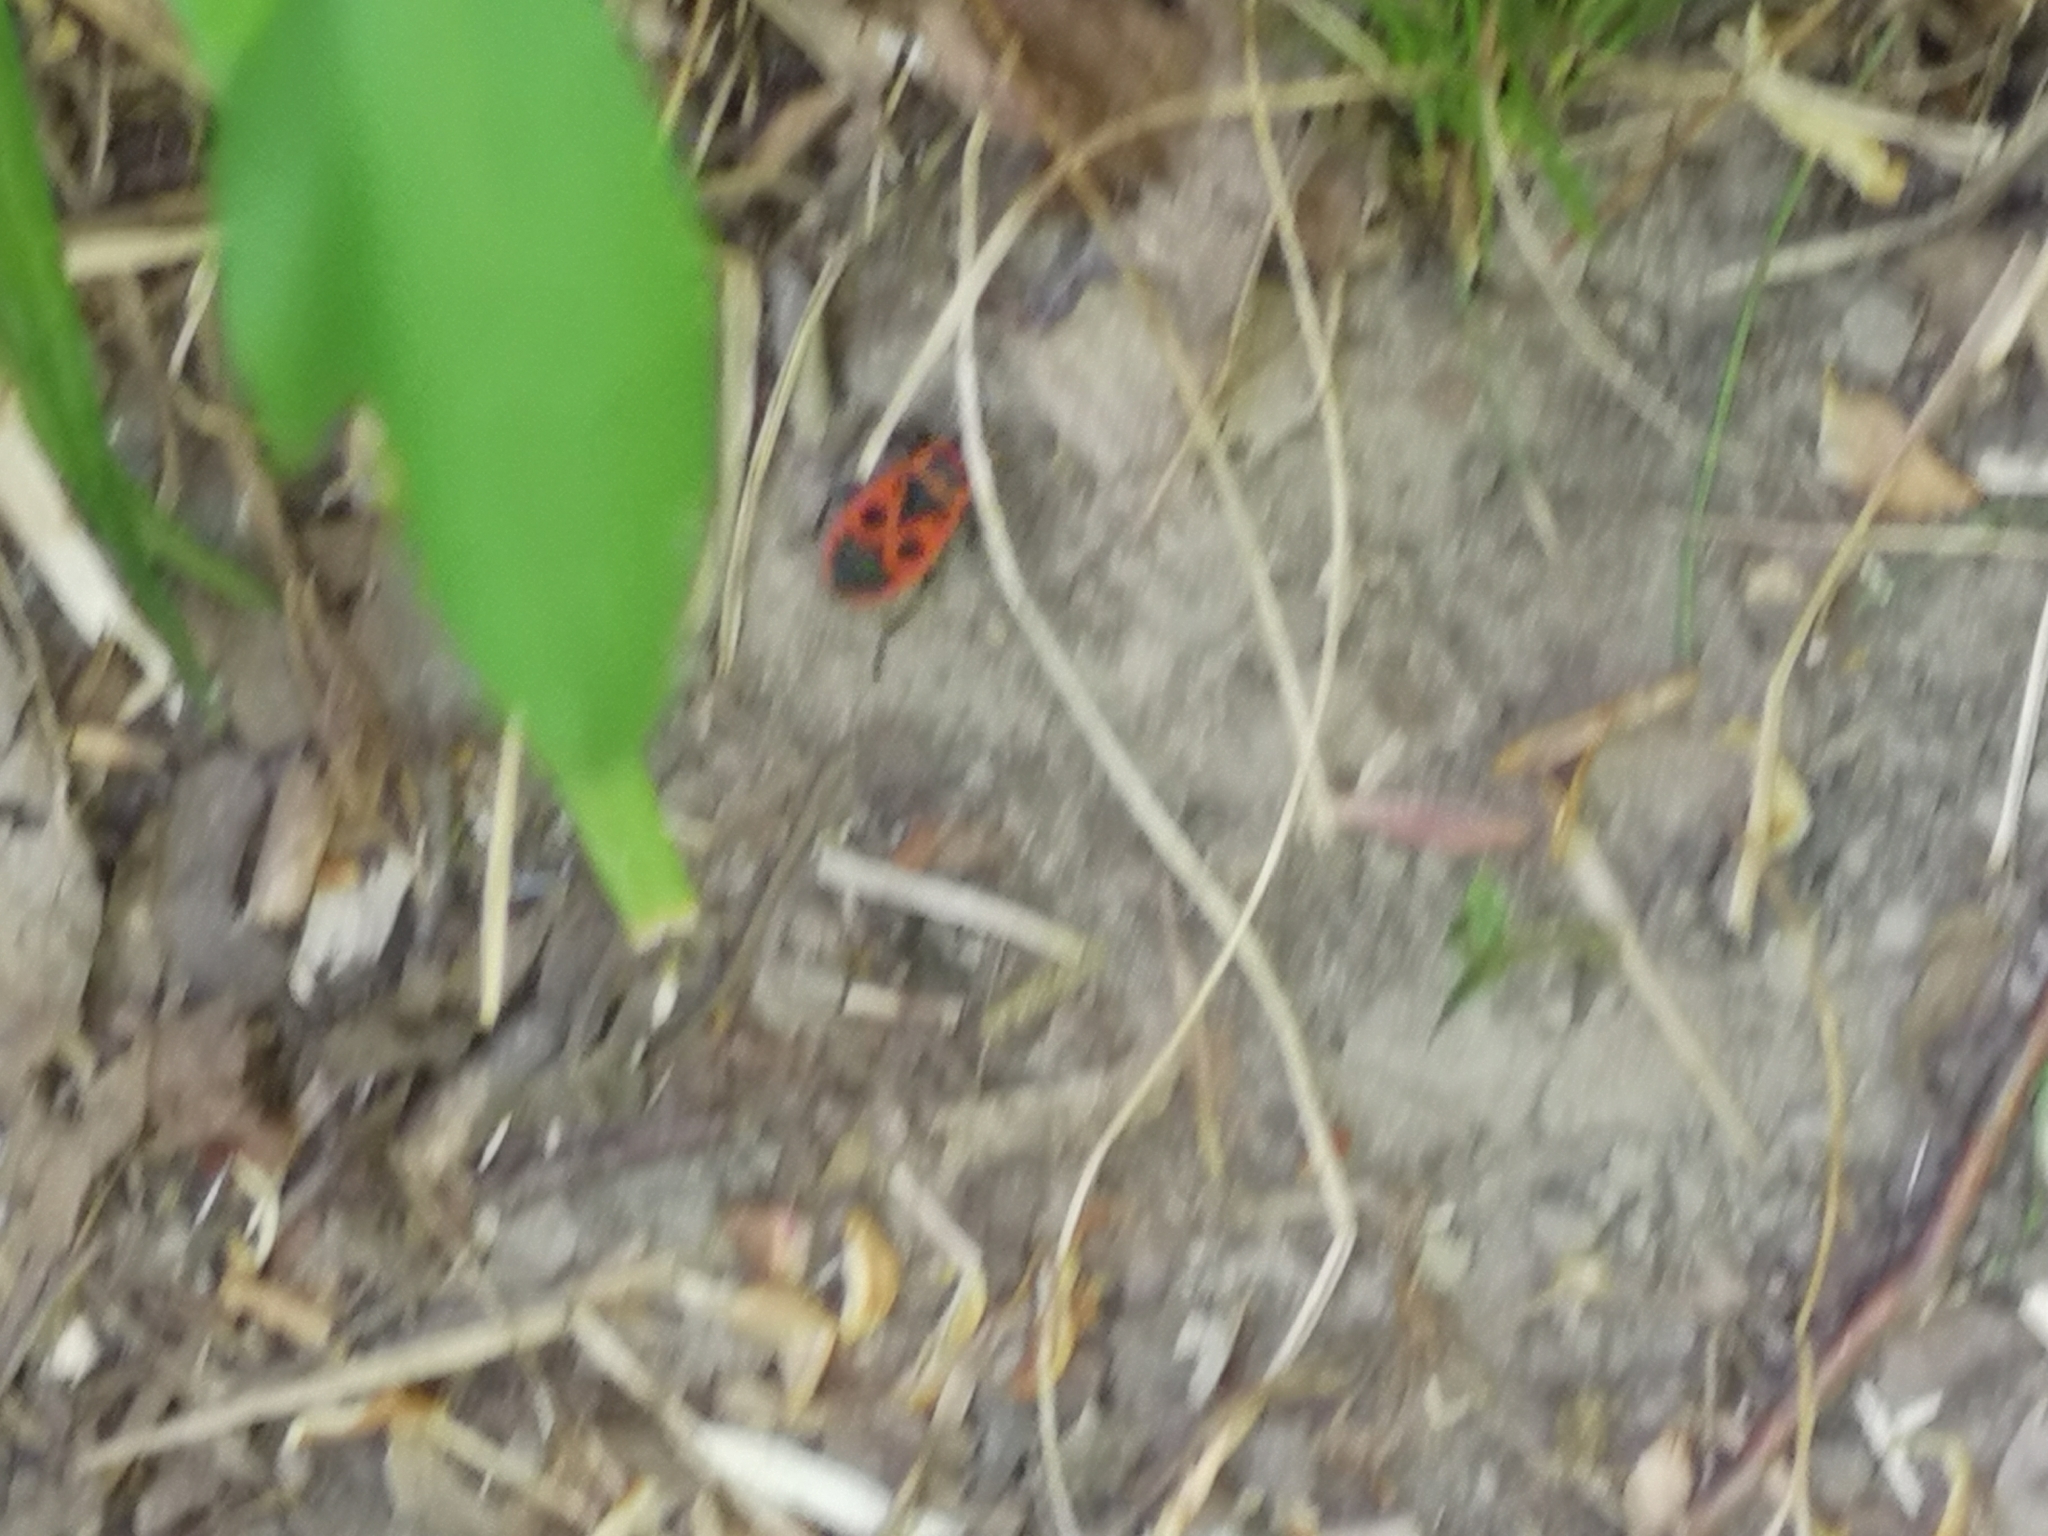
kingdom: Animalia
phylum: Arthropoda
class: Insecta
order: Hemiptera
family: Pyrrhocoridae
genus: Pyrrhocoris
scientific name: Pyrrhocoris apterus
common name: Firebug
